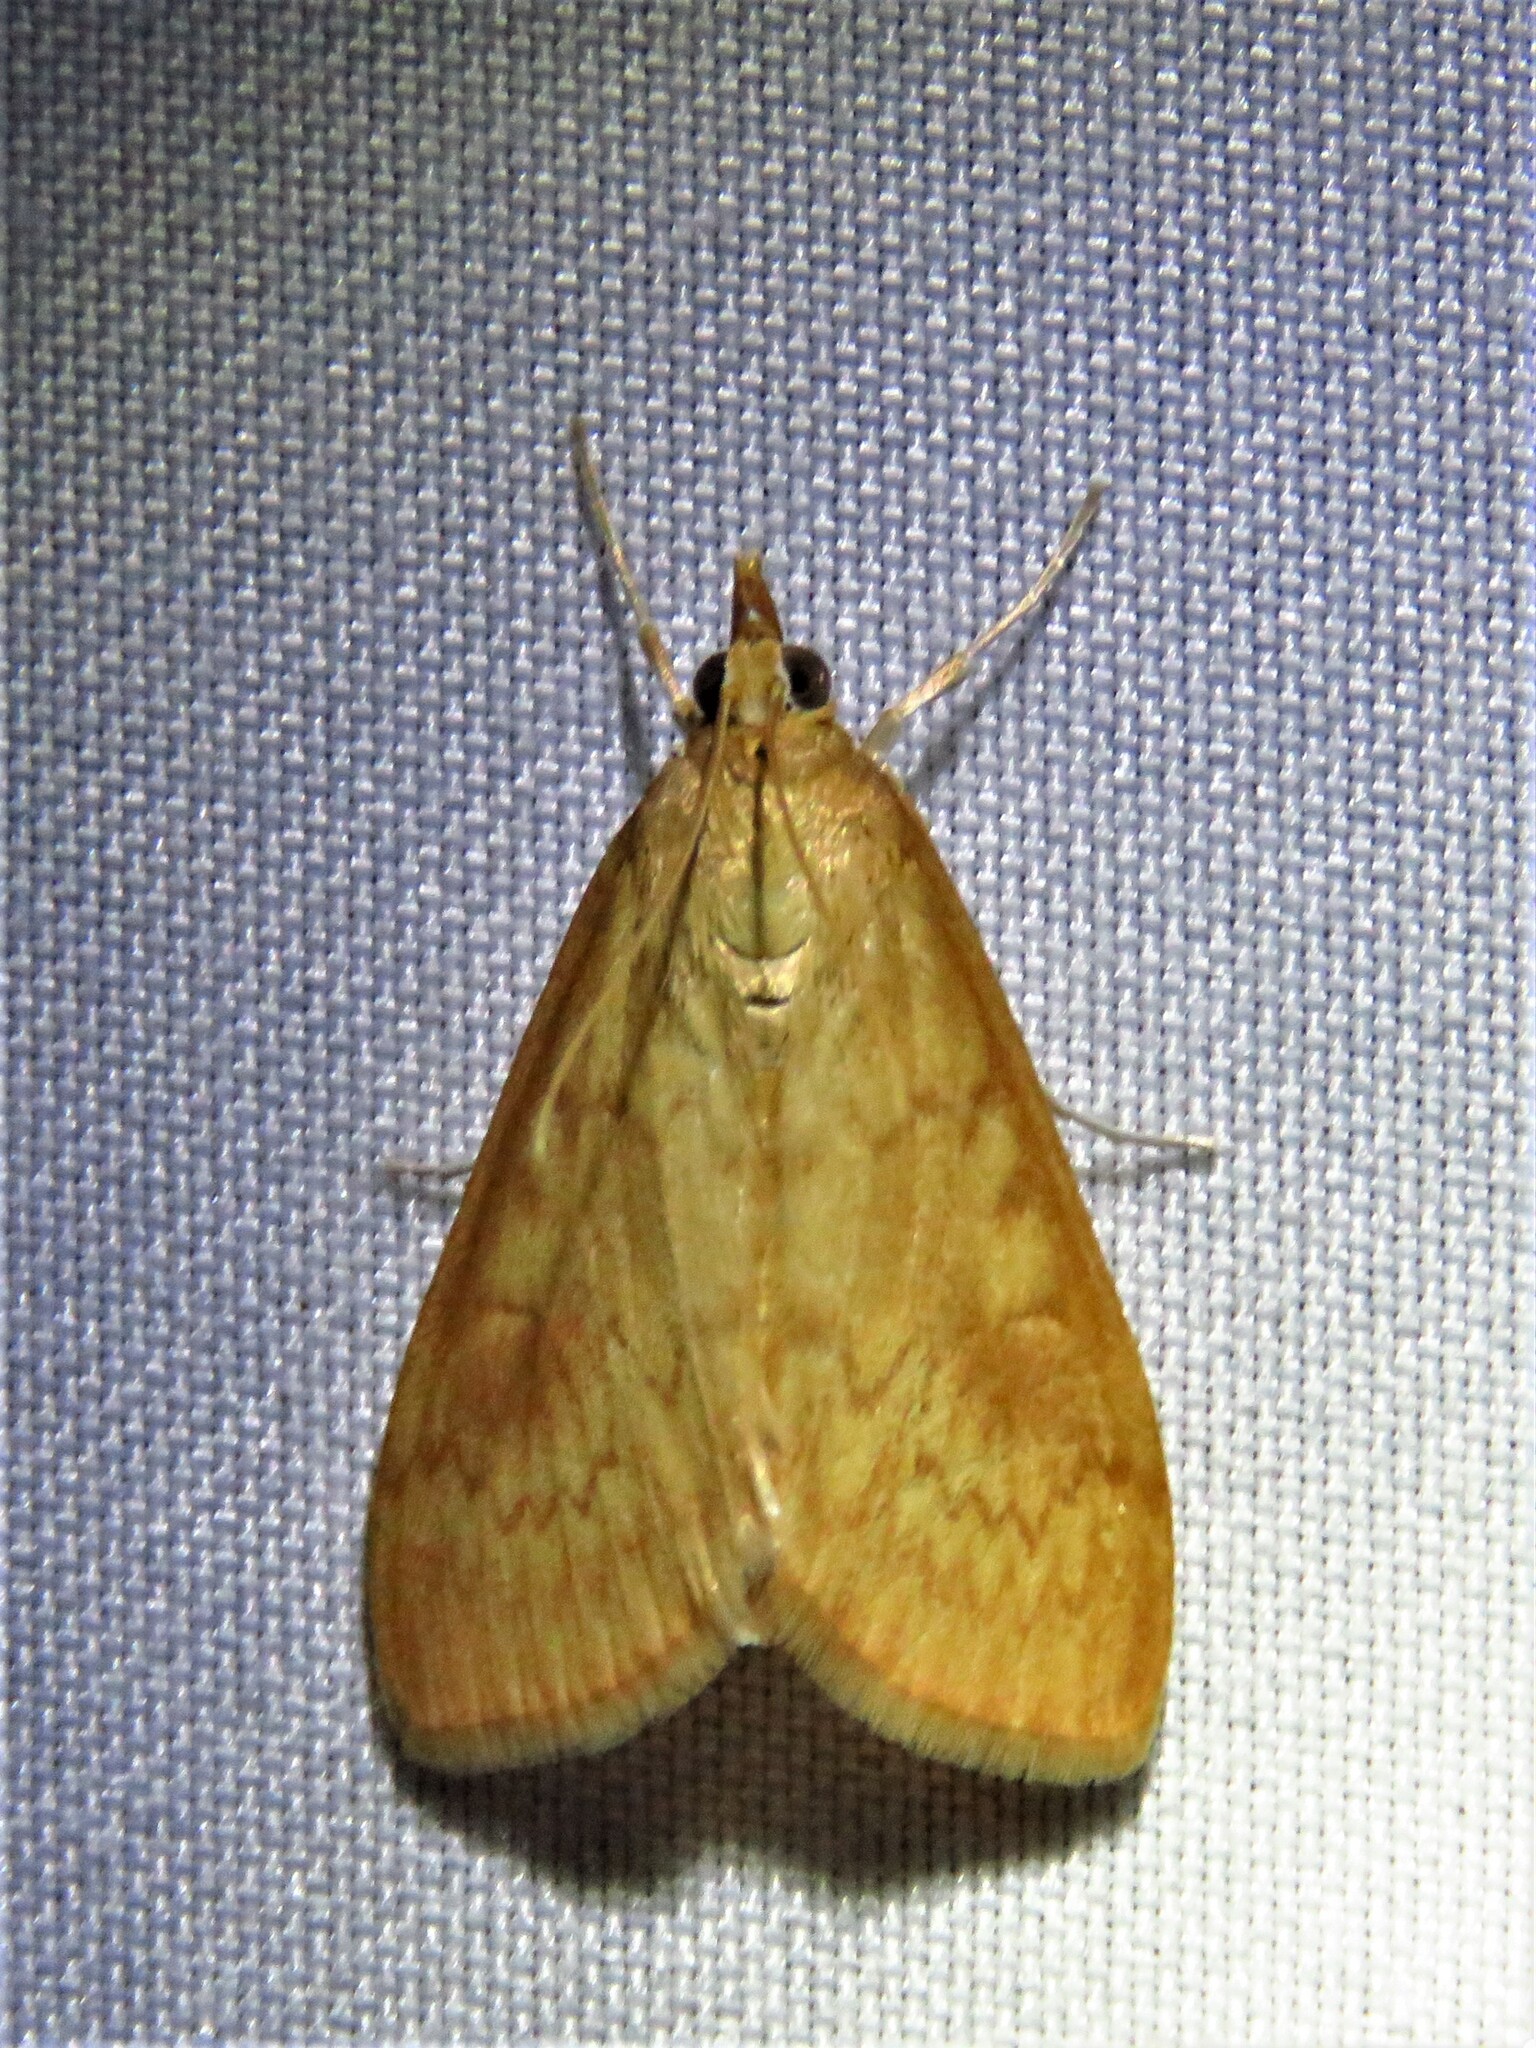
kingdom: Animalia
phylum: Arthropoda
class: Insecta
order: Lepidoptera
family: Crambidae
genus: Ostrinia
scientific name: Ostrinia penitalis
